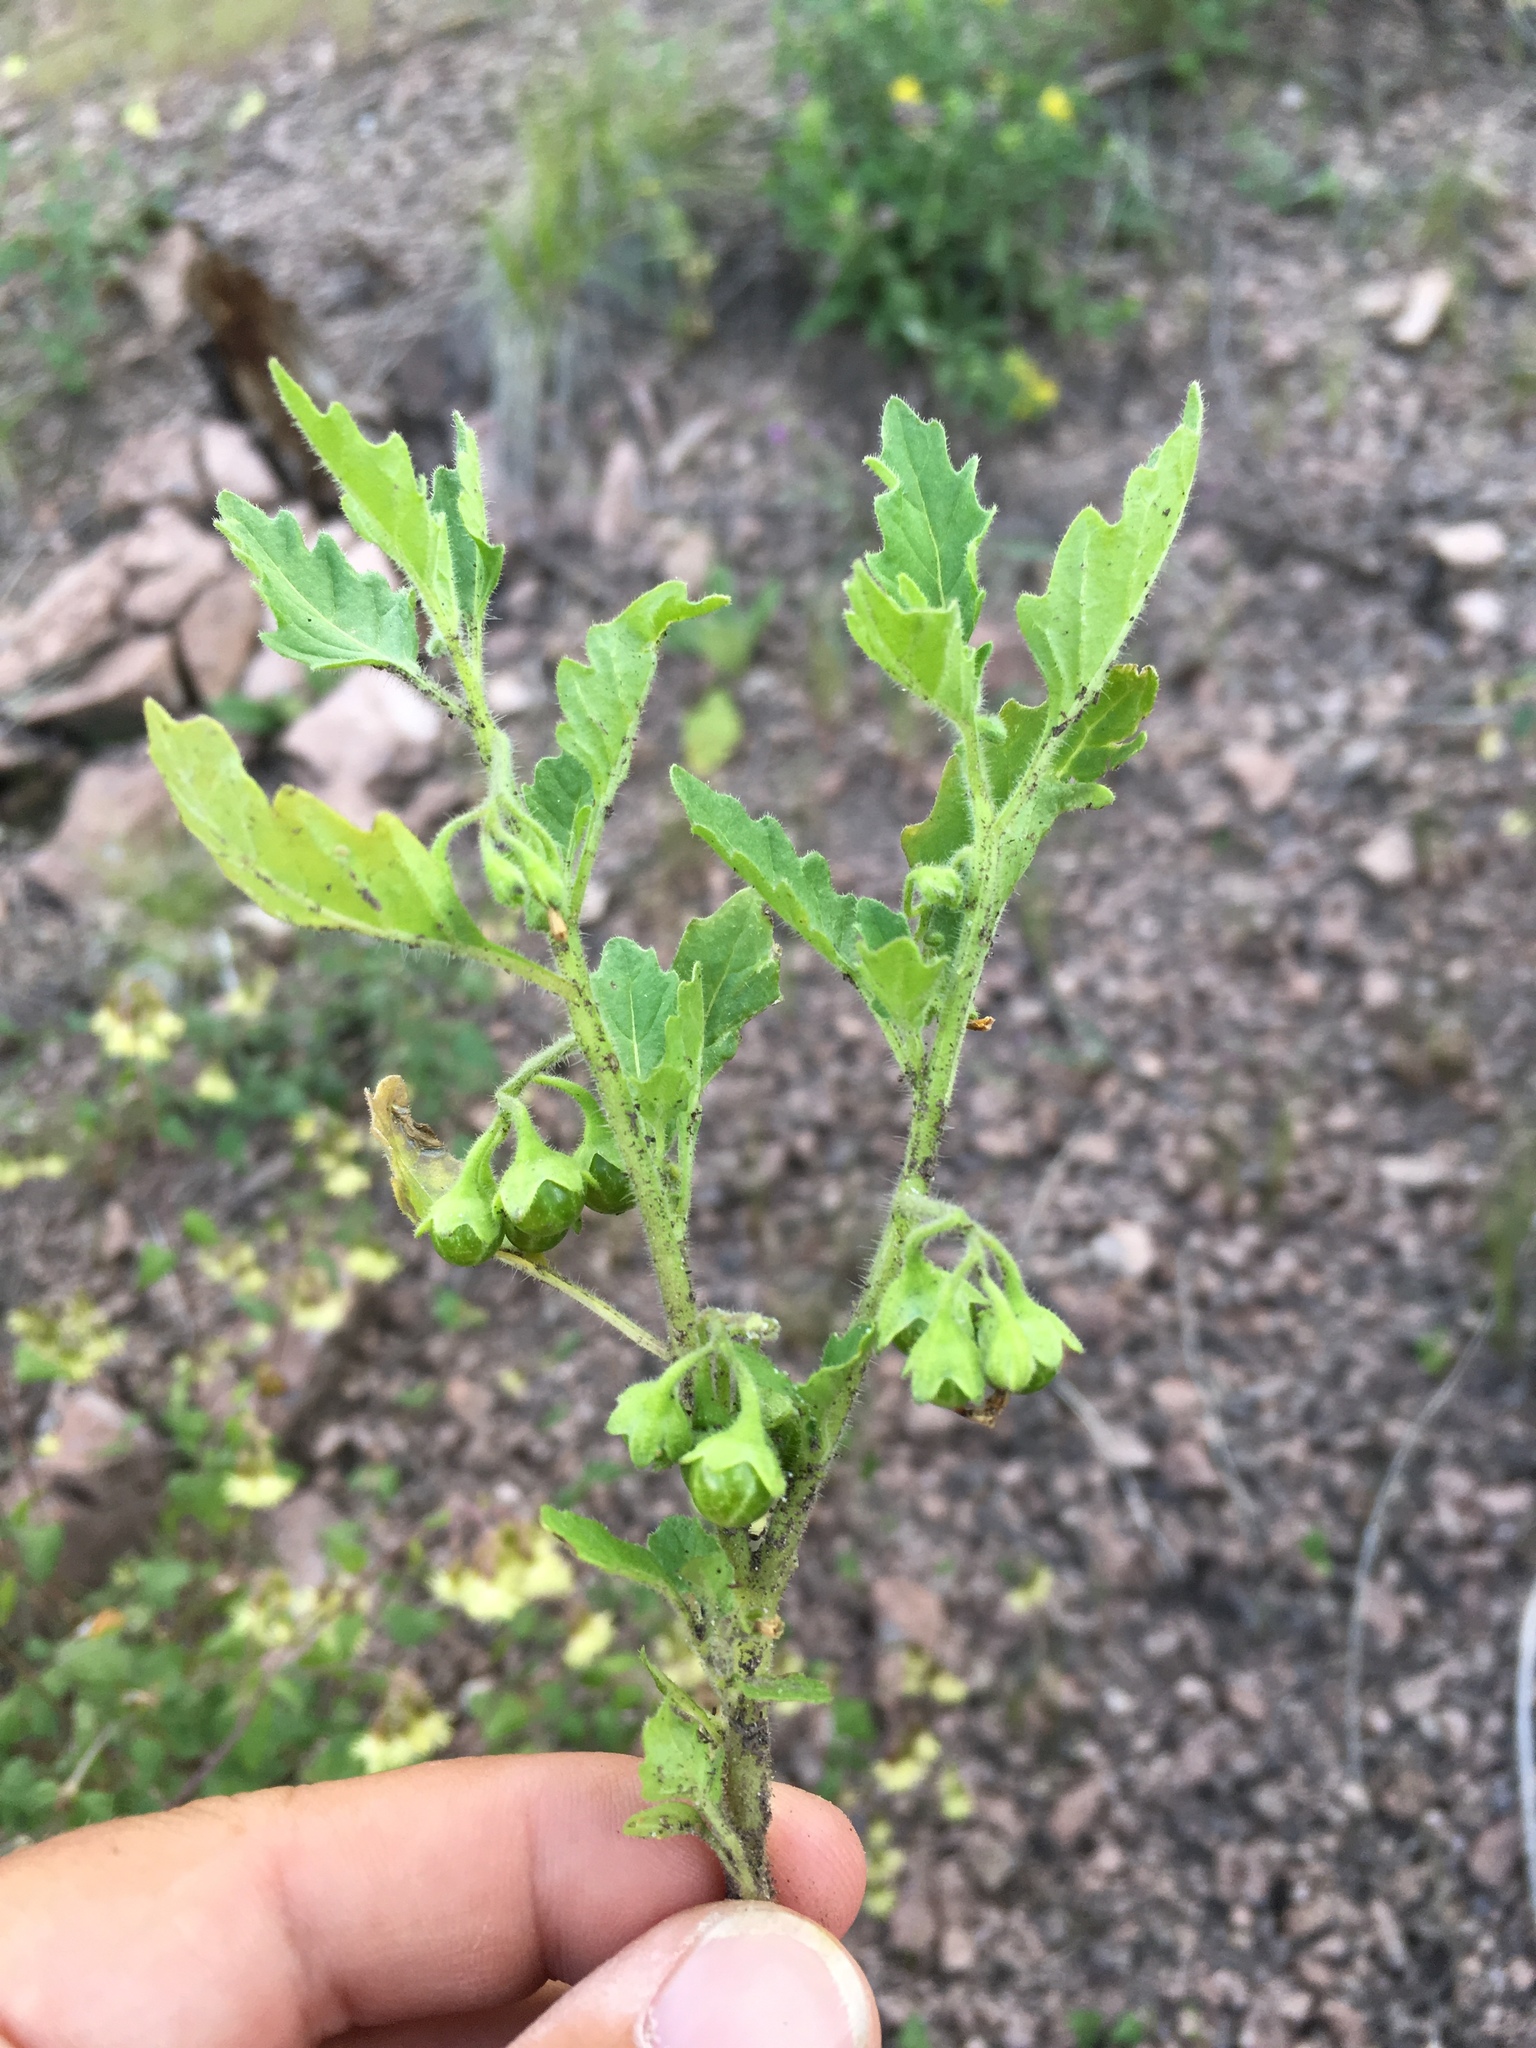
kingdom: Plantae
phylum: Tracheophyta
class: Magnoliopsida
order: Solanales
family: Solanaceae
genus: Solanum
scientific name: Solanum nitidibaccatum
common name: Hairy nightshade
